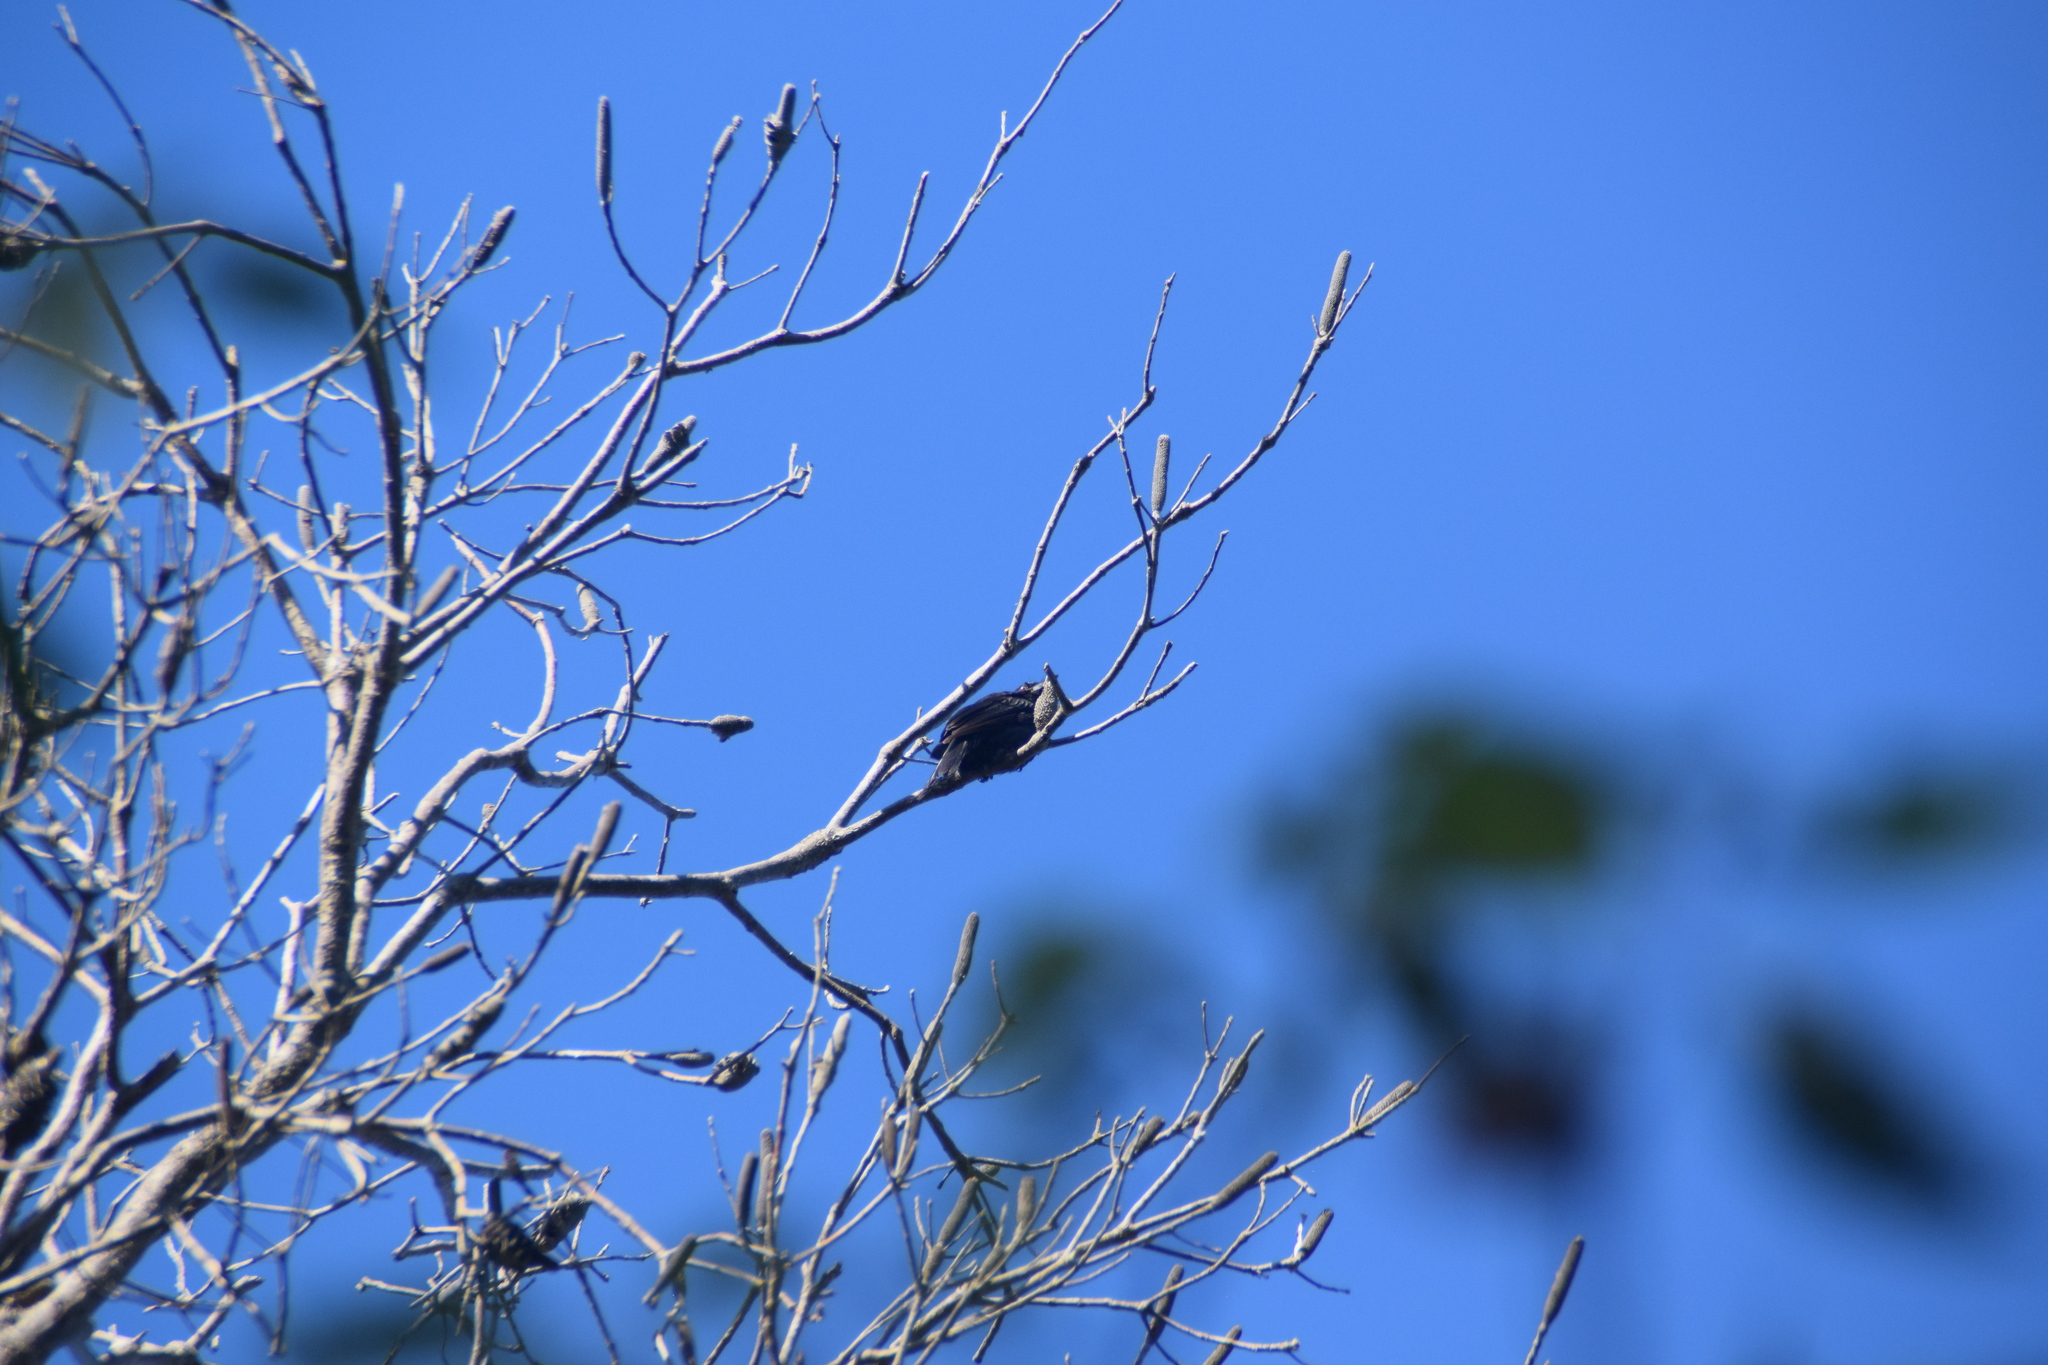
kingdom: Animalia
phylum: Chordata
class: Aves
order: Passeriformes
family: Dicruridae
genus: Dicrurus
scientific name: Dicrurus bracteatus
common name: Spangled drongo
